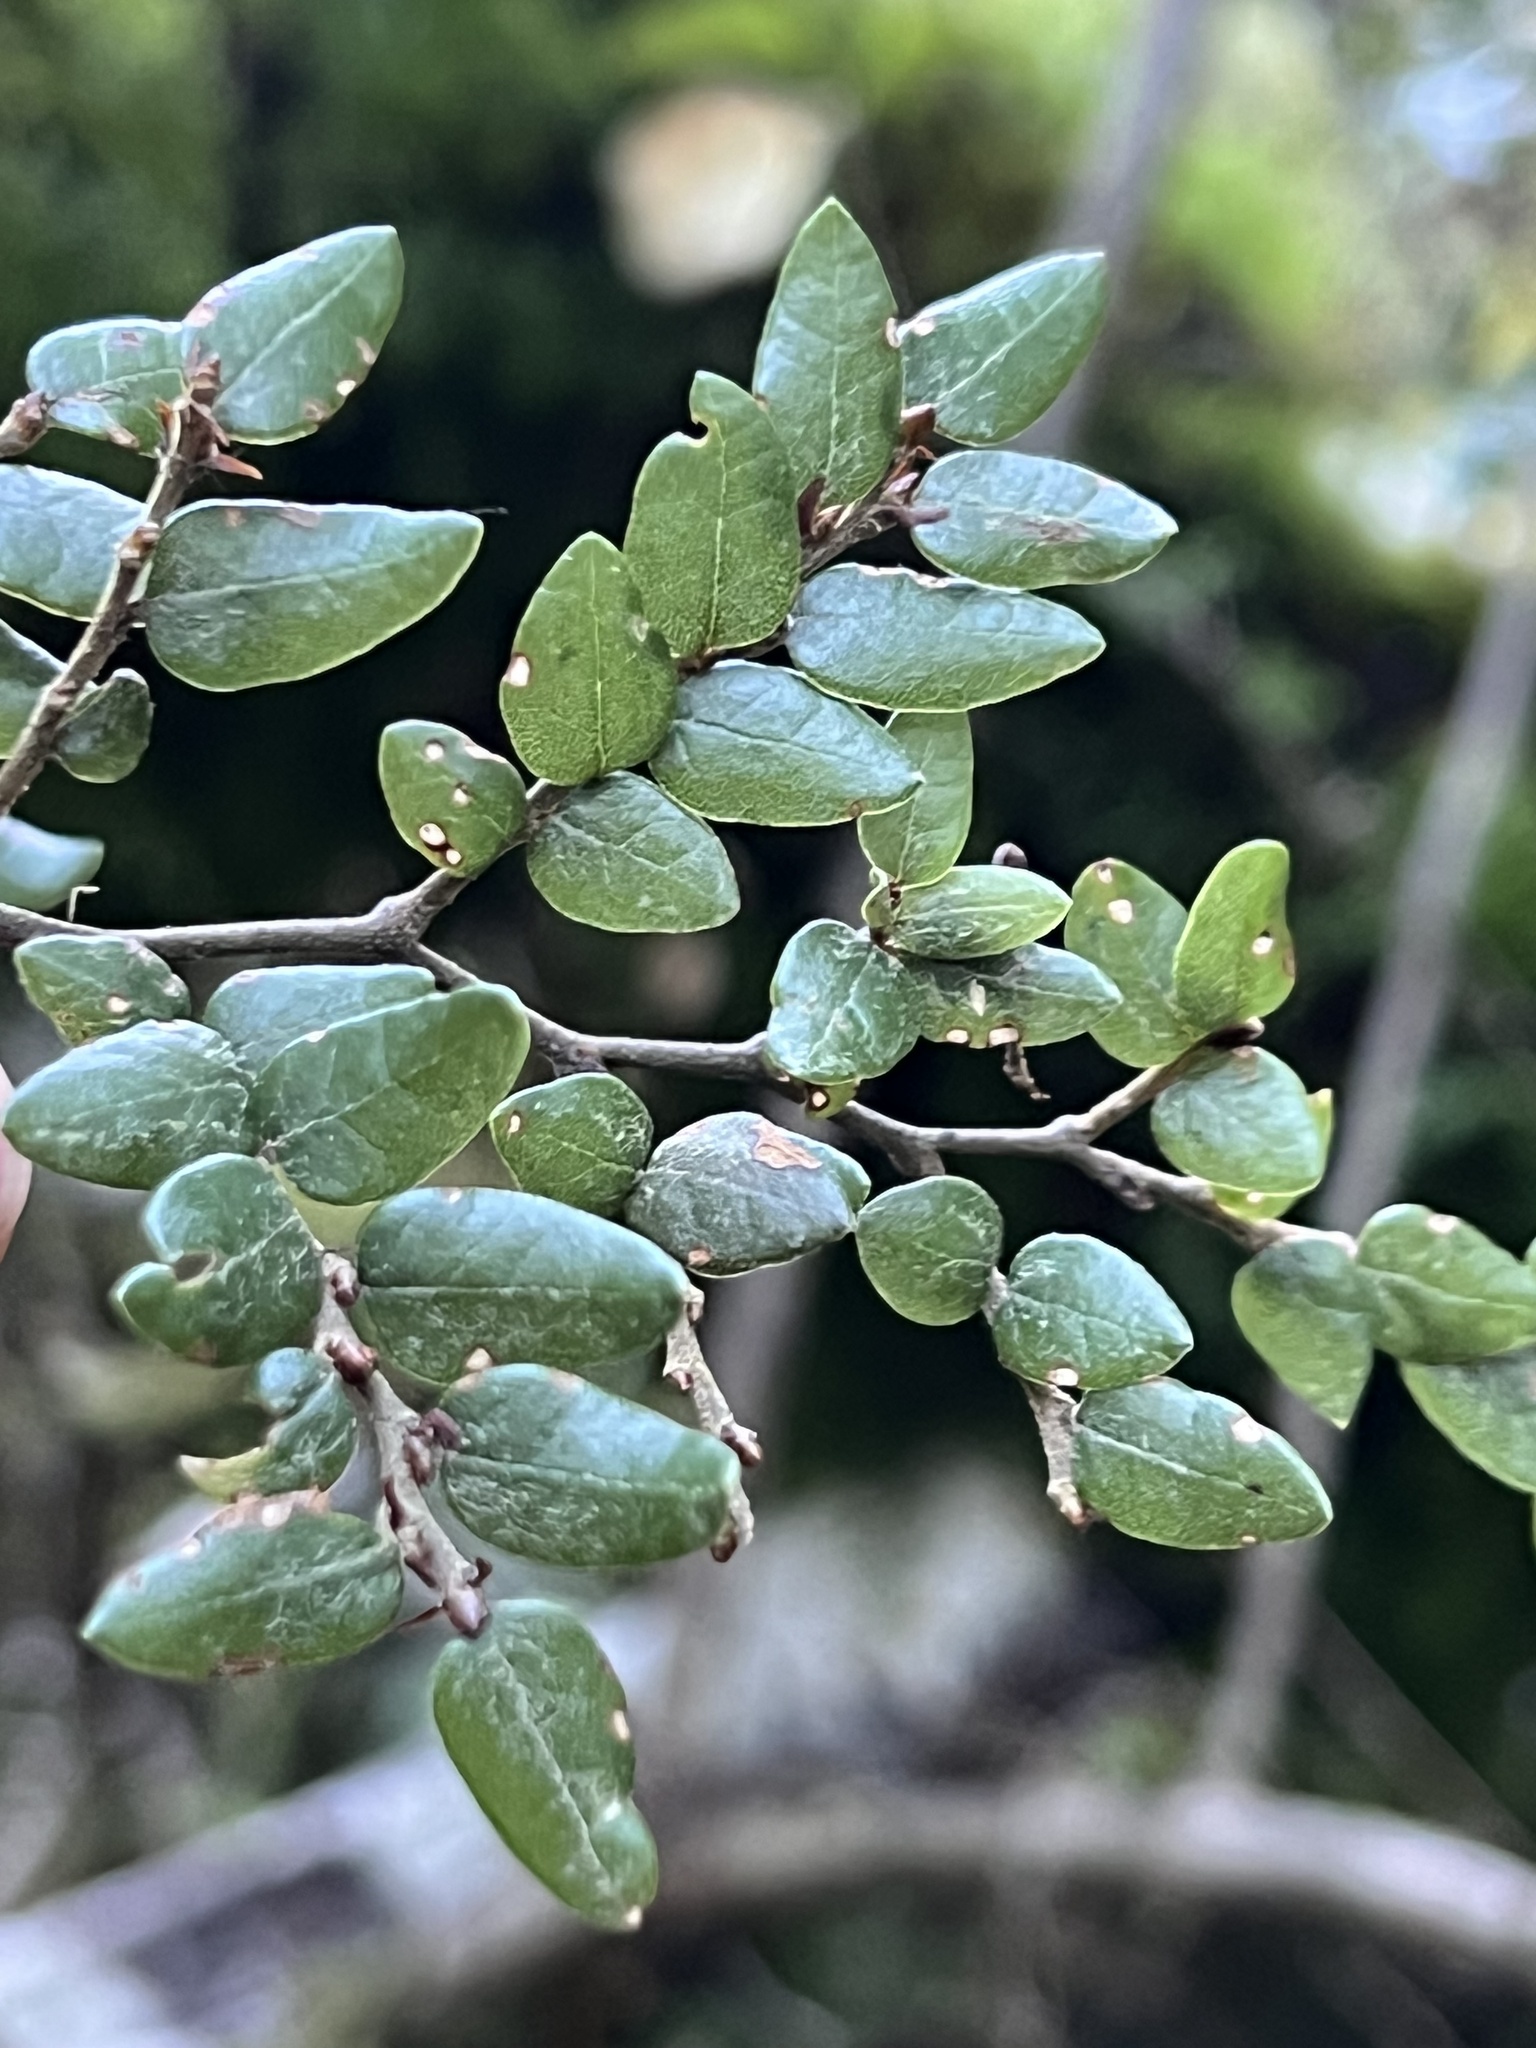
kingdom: Plantae
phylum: Tracheophyta
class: Magnoliopsida
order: Fagales
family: Nothofagaceae
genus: Nothofagus
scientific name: Nothofagus cliffortioides
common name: Mountain beech
